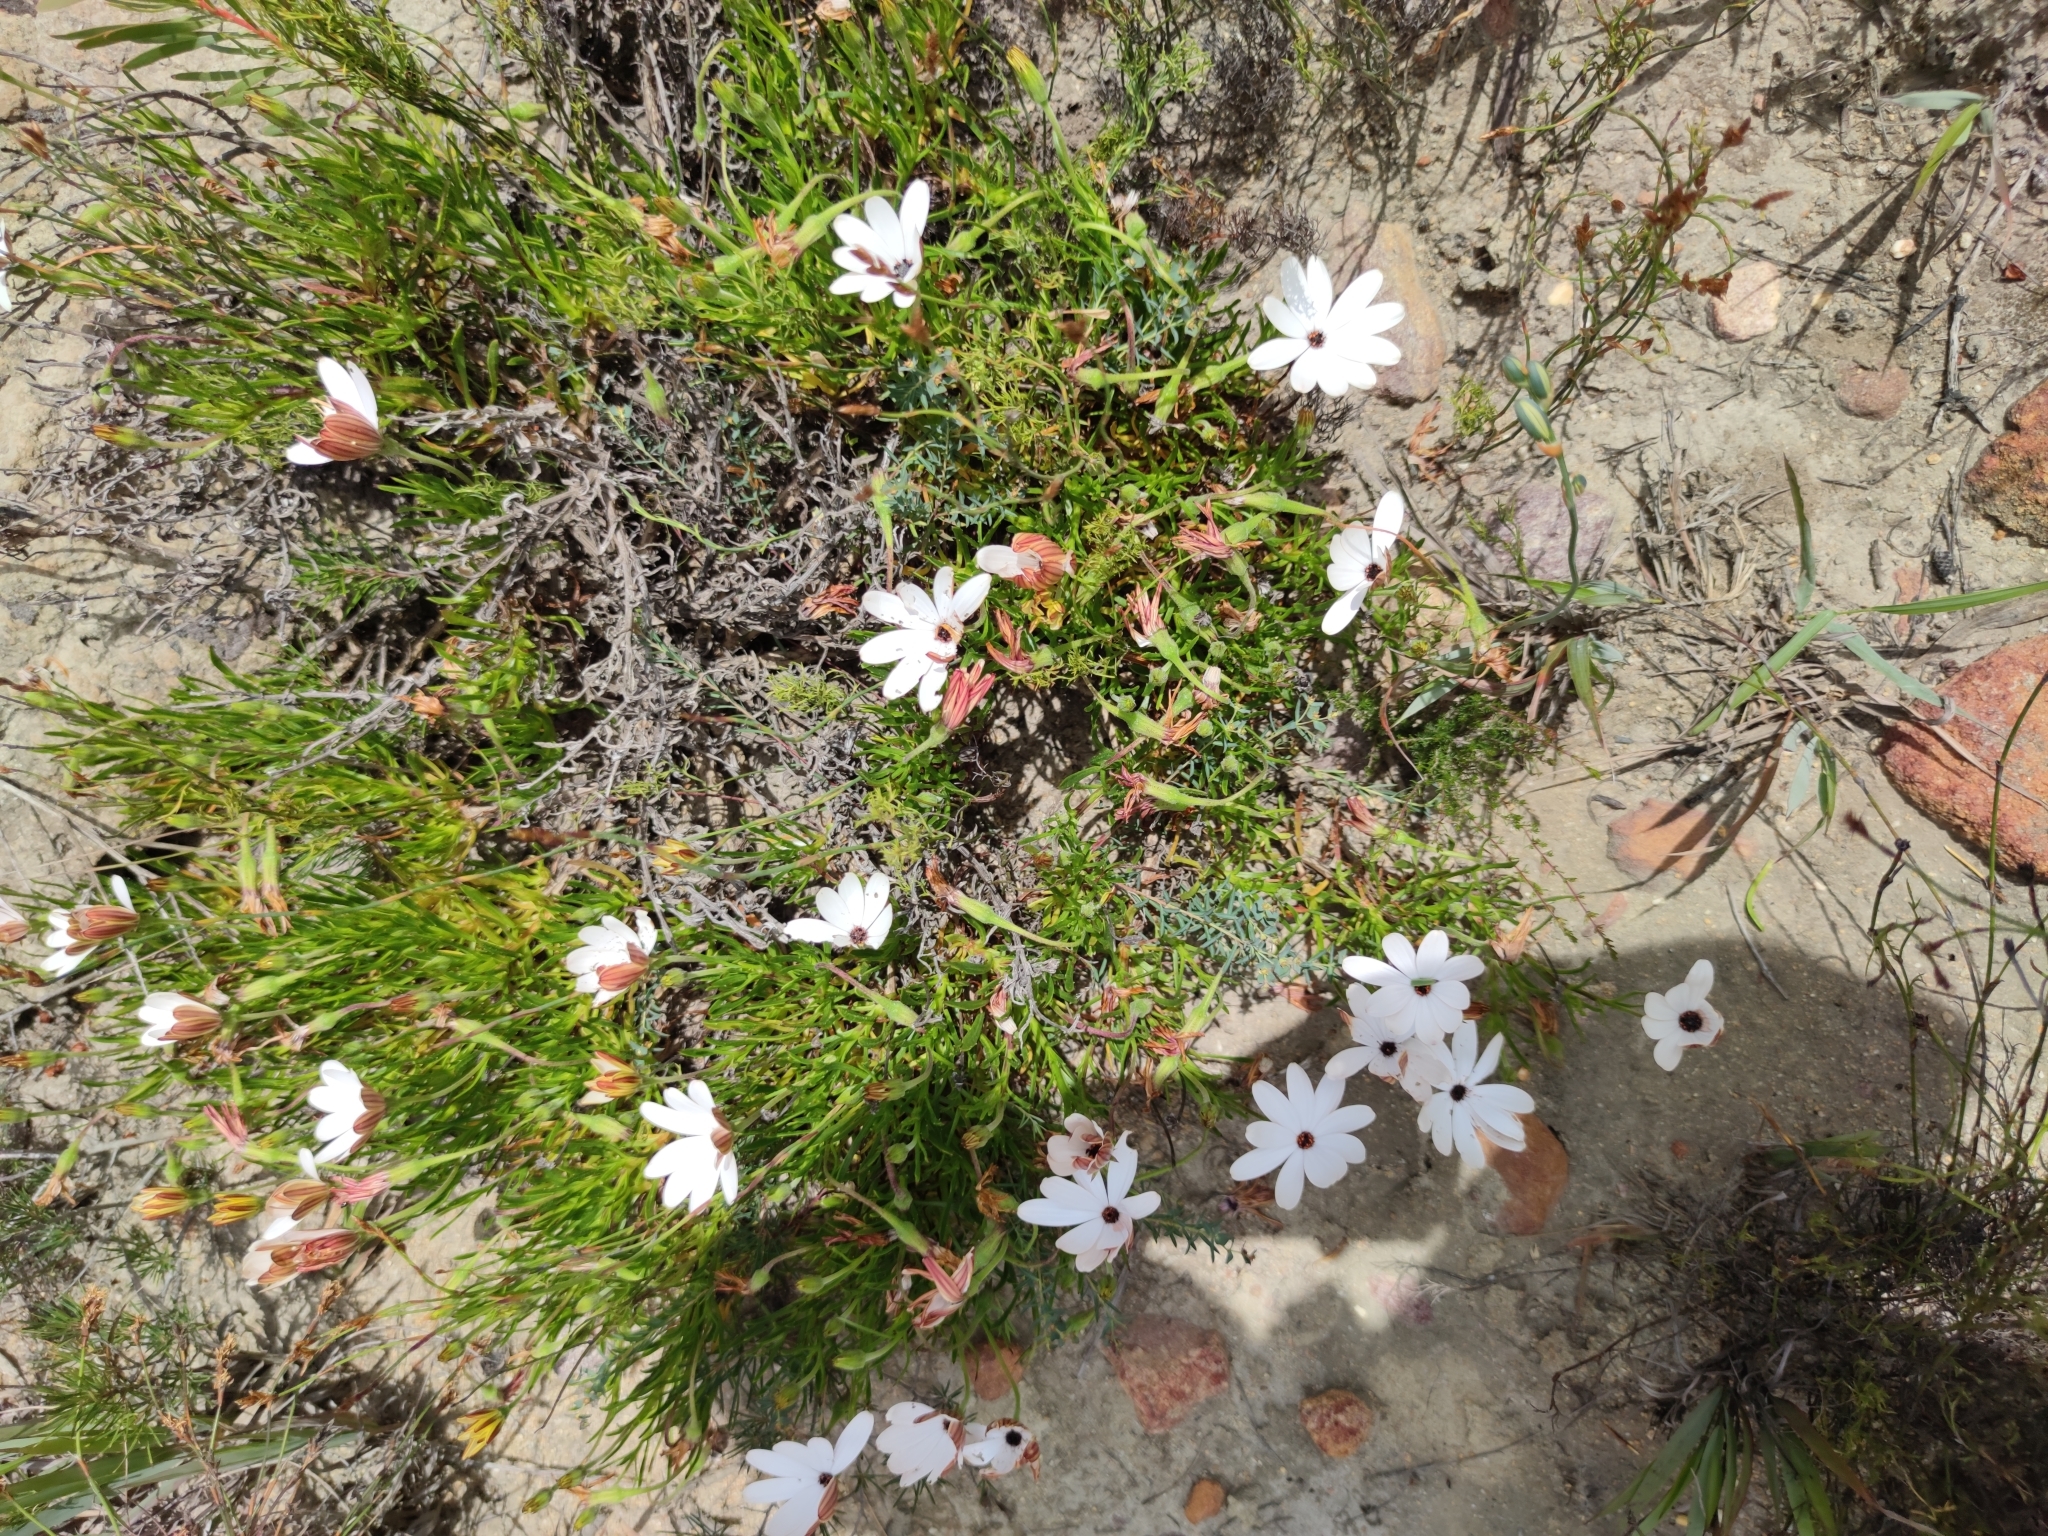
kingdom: Plantae
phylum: Tracheophyta
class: Magnoliopsida
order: Asterales
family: Asteraceae
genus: Dimorphotheca
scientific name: Dimorphotheca acutifolia
